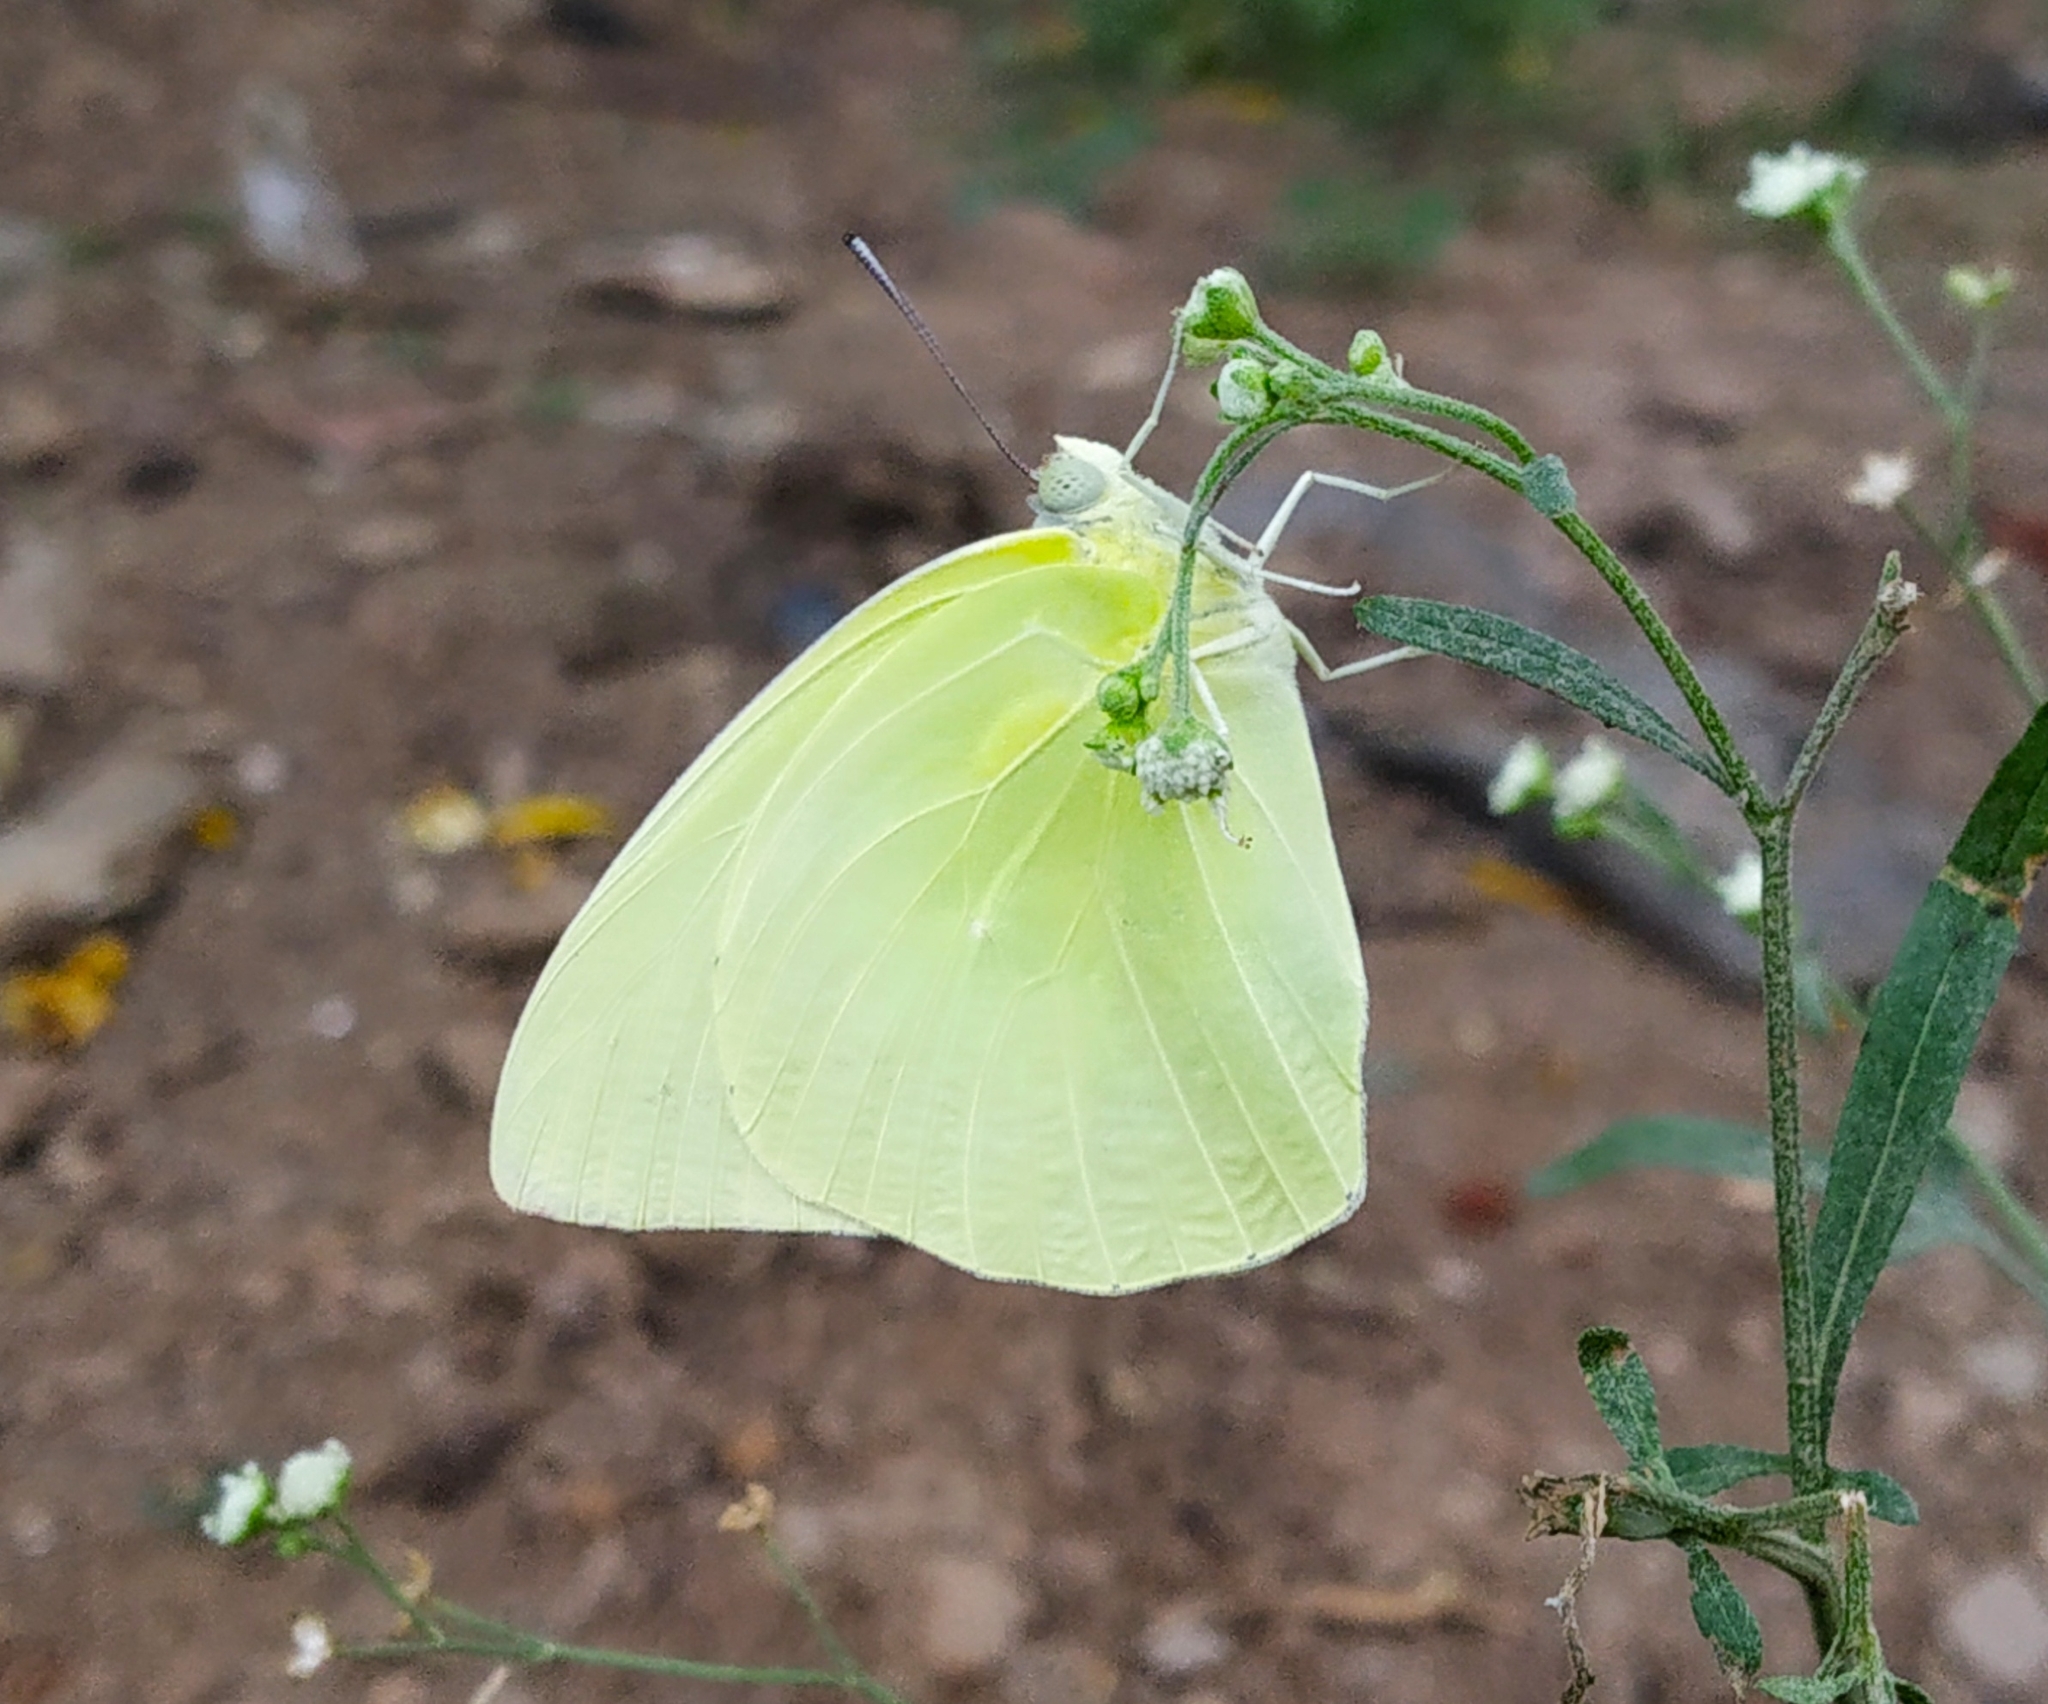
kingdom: Animalia
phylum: Arthropoda
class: Insecta
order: Lepidoptera
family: Pieridae
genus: Catopsilia
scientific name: Catopsilia pomona
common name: Common emigrant
